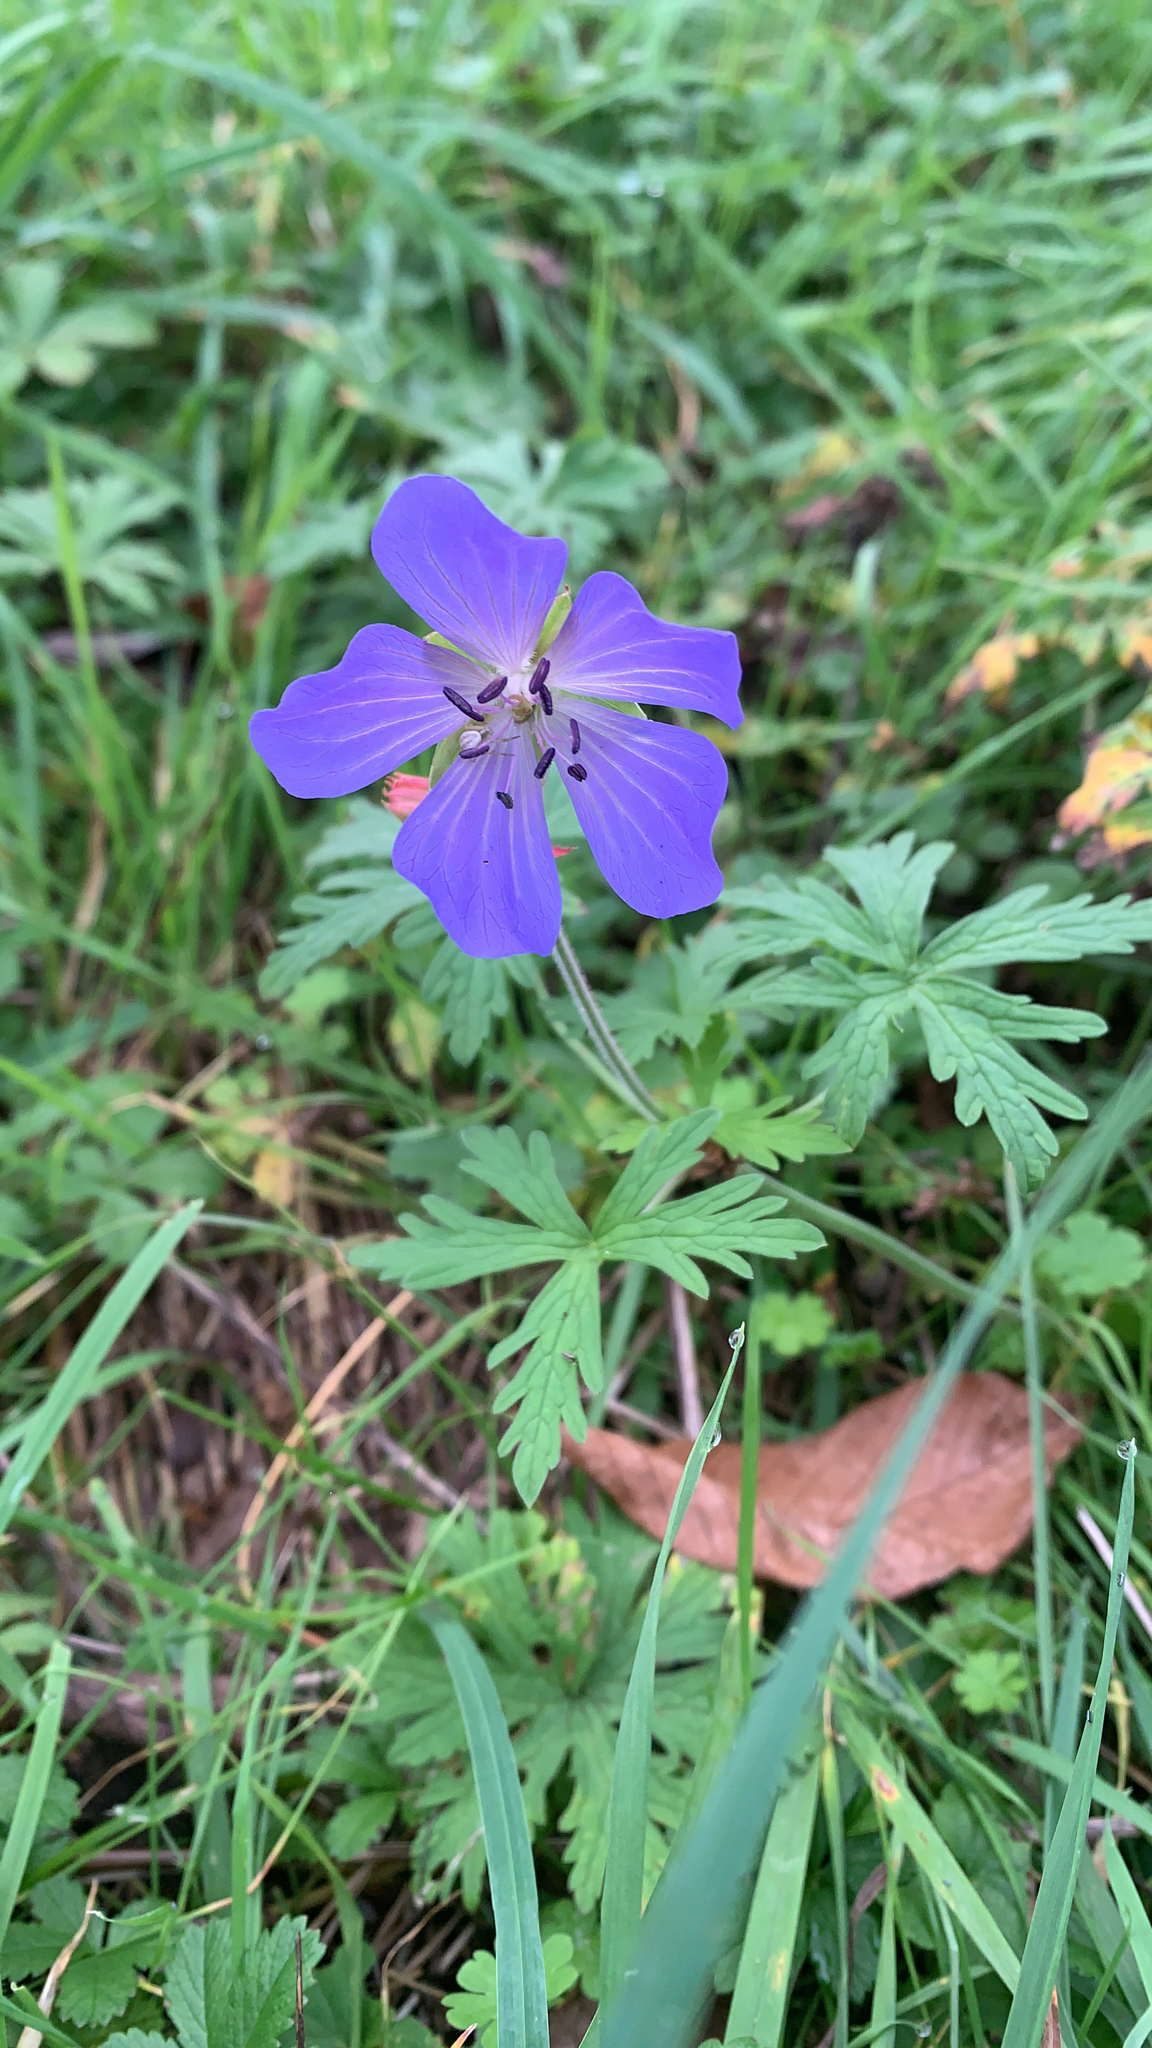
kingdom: Plantae
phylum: Tracheophyta
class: Magnoliopsida
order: Geraniales
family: Geraniaceae
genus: Geranium
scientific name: Geranium pratense
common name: Meadow crane's-bill
